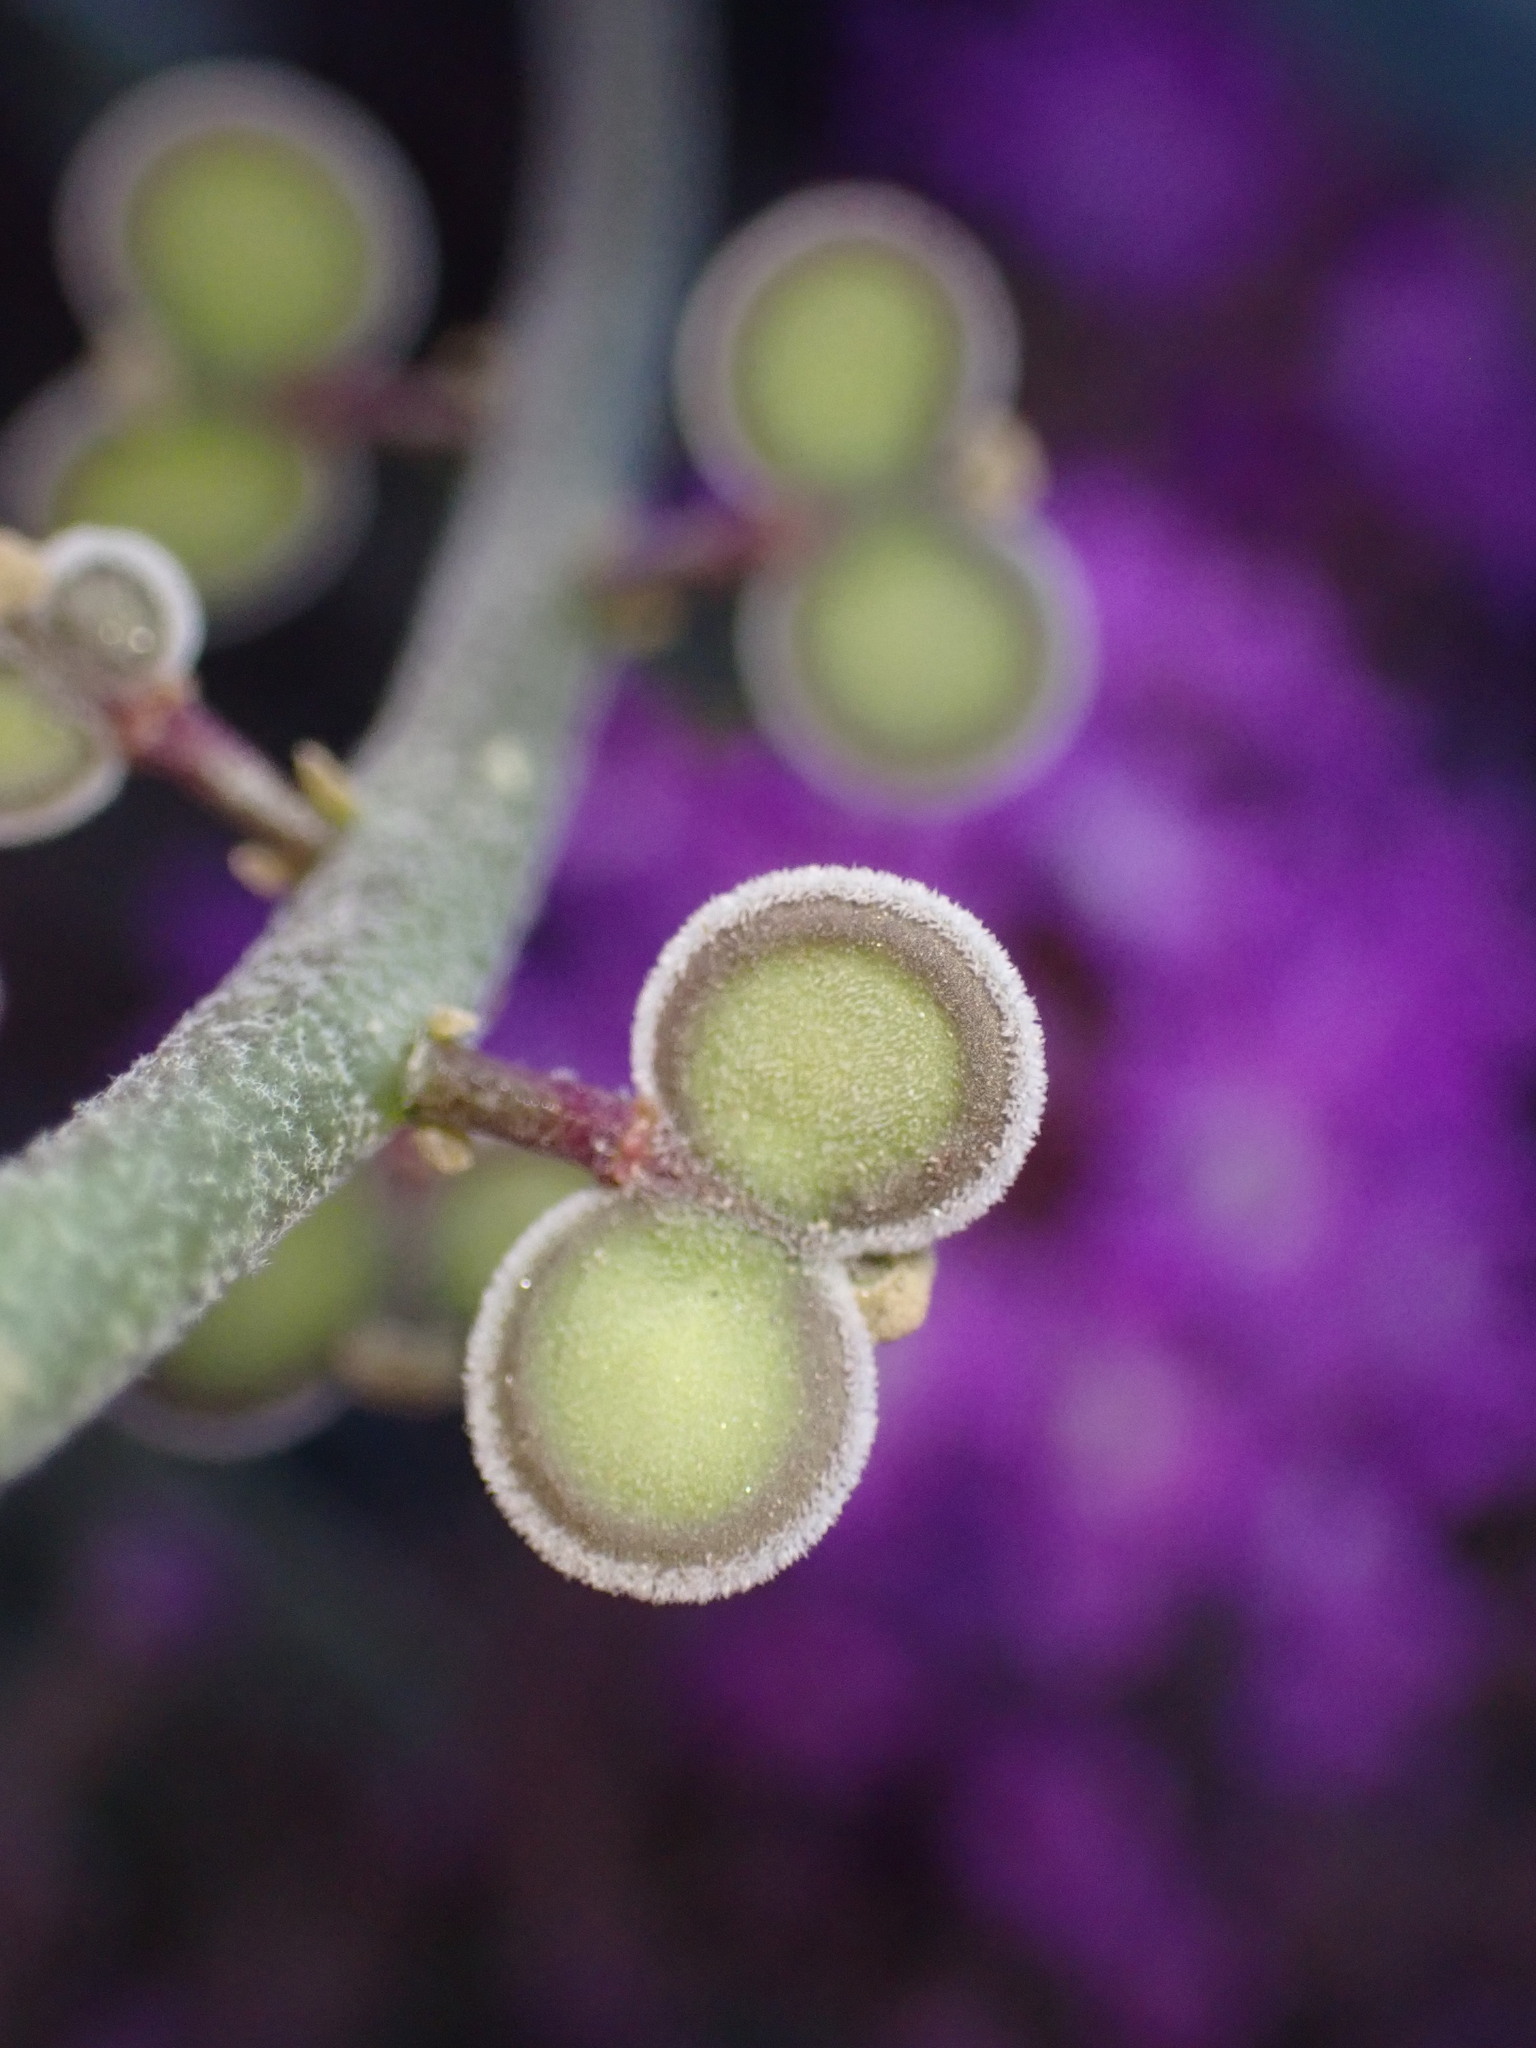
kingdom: Plantae
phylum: Tracheophyta
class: Magnoliopsida
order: Brassicales
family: Brassicaceae
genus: Dithyrea
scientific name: Dithyrea californica
